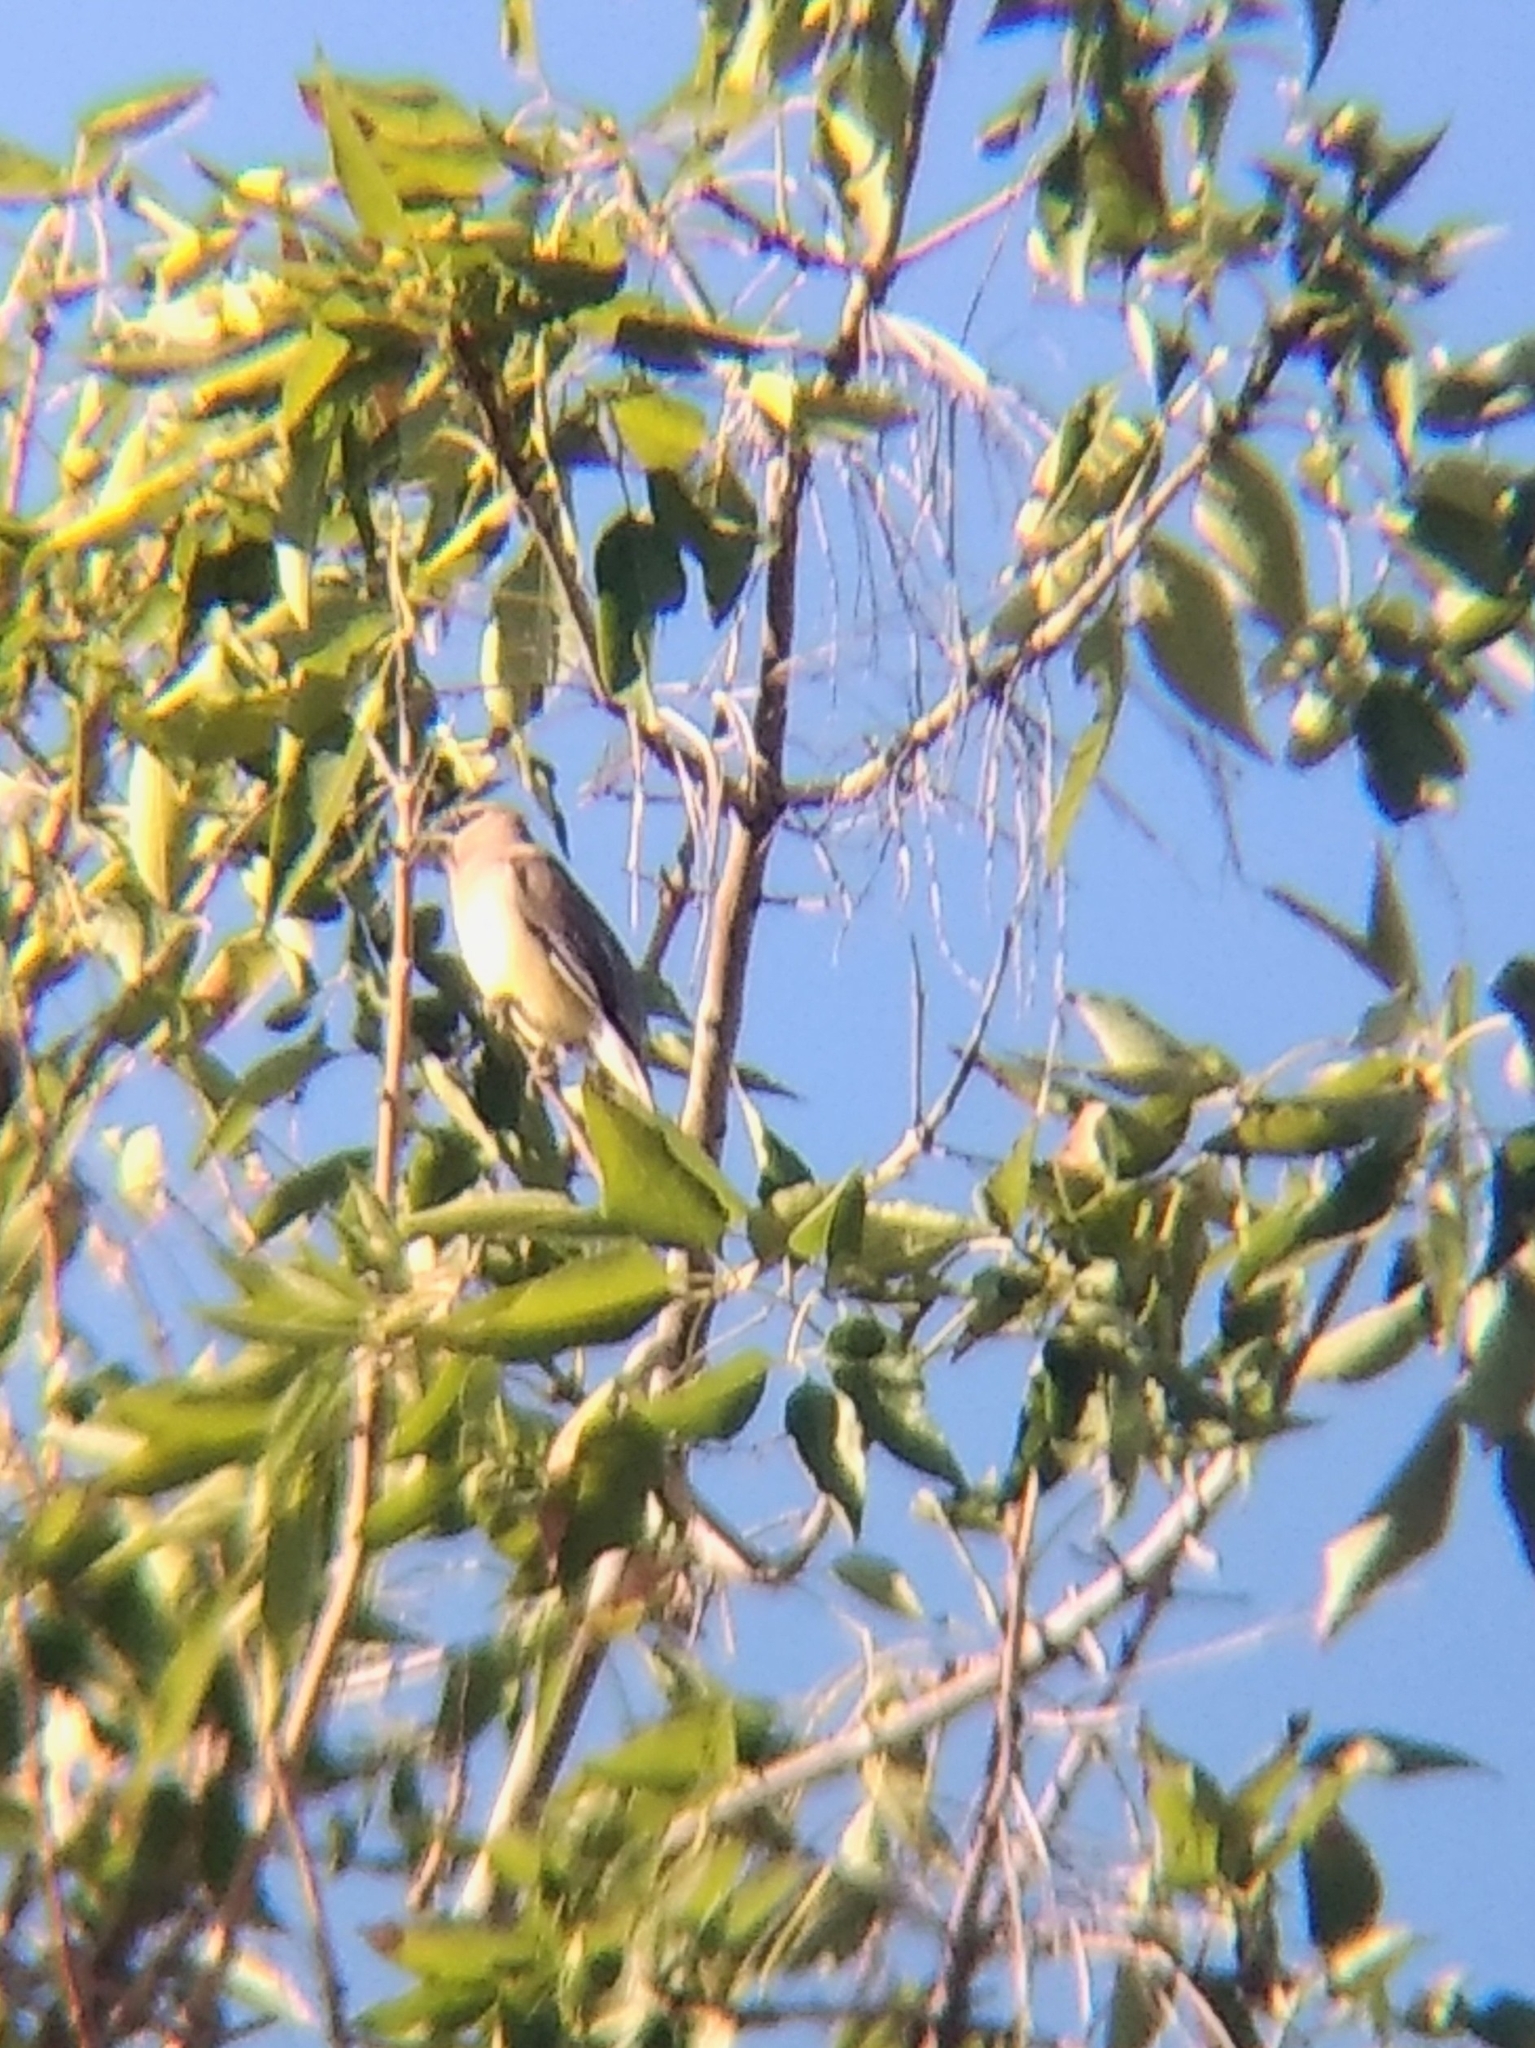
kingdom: Animalia
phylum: Chordata
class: Aves
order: Passeriformes
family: Bombycillidae
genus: Bombycilla
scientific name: Bombycilla cedrorum
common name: Cedar waxwing
